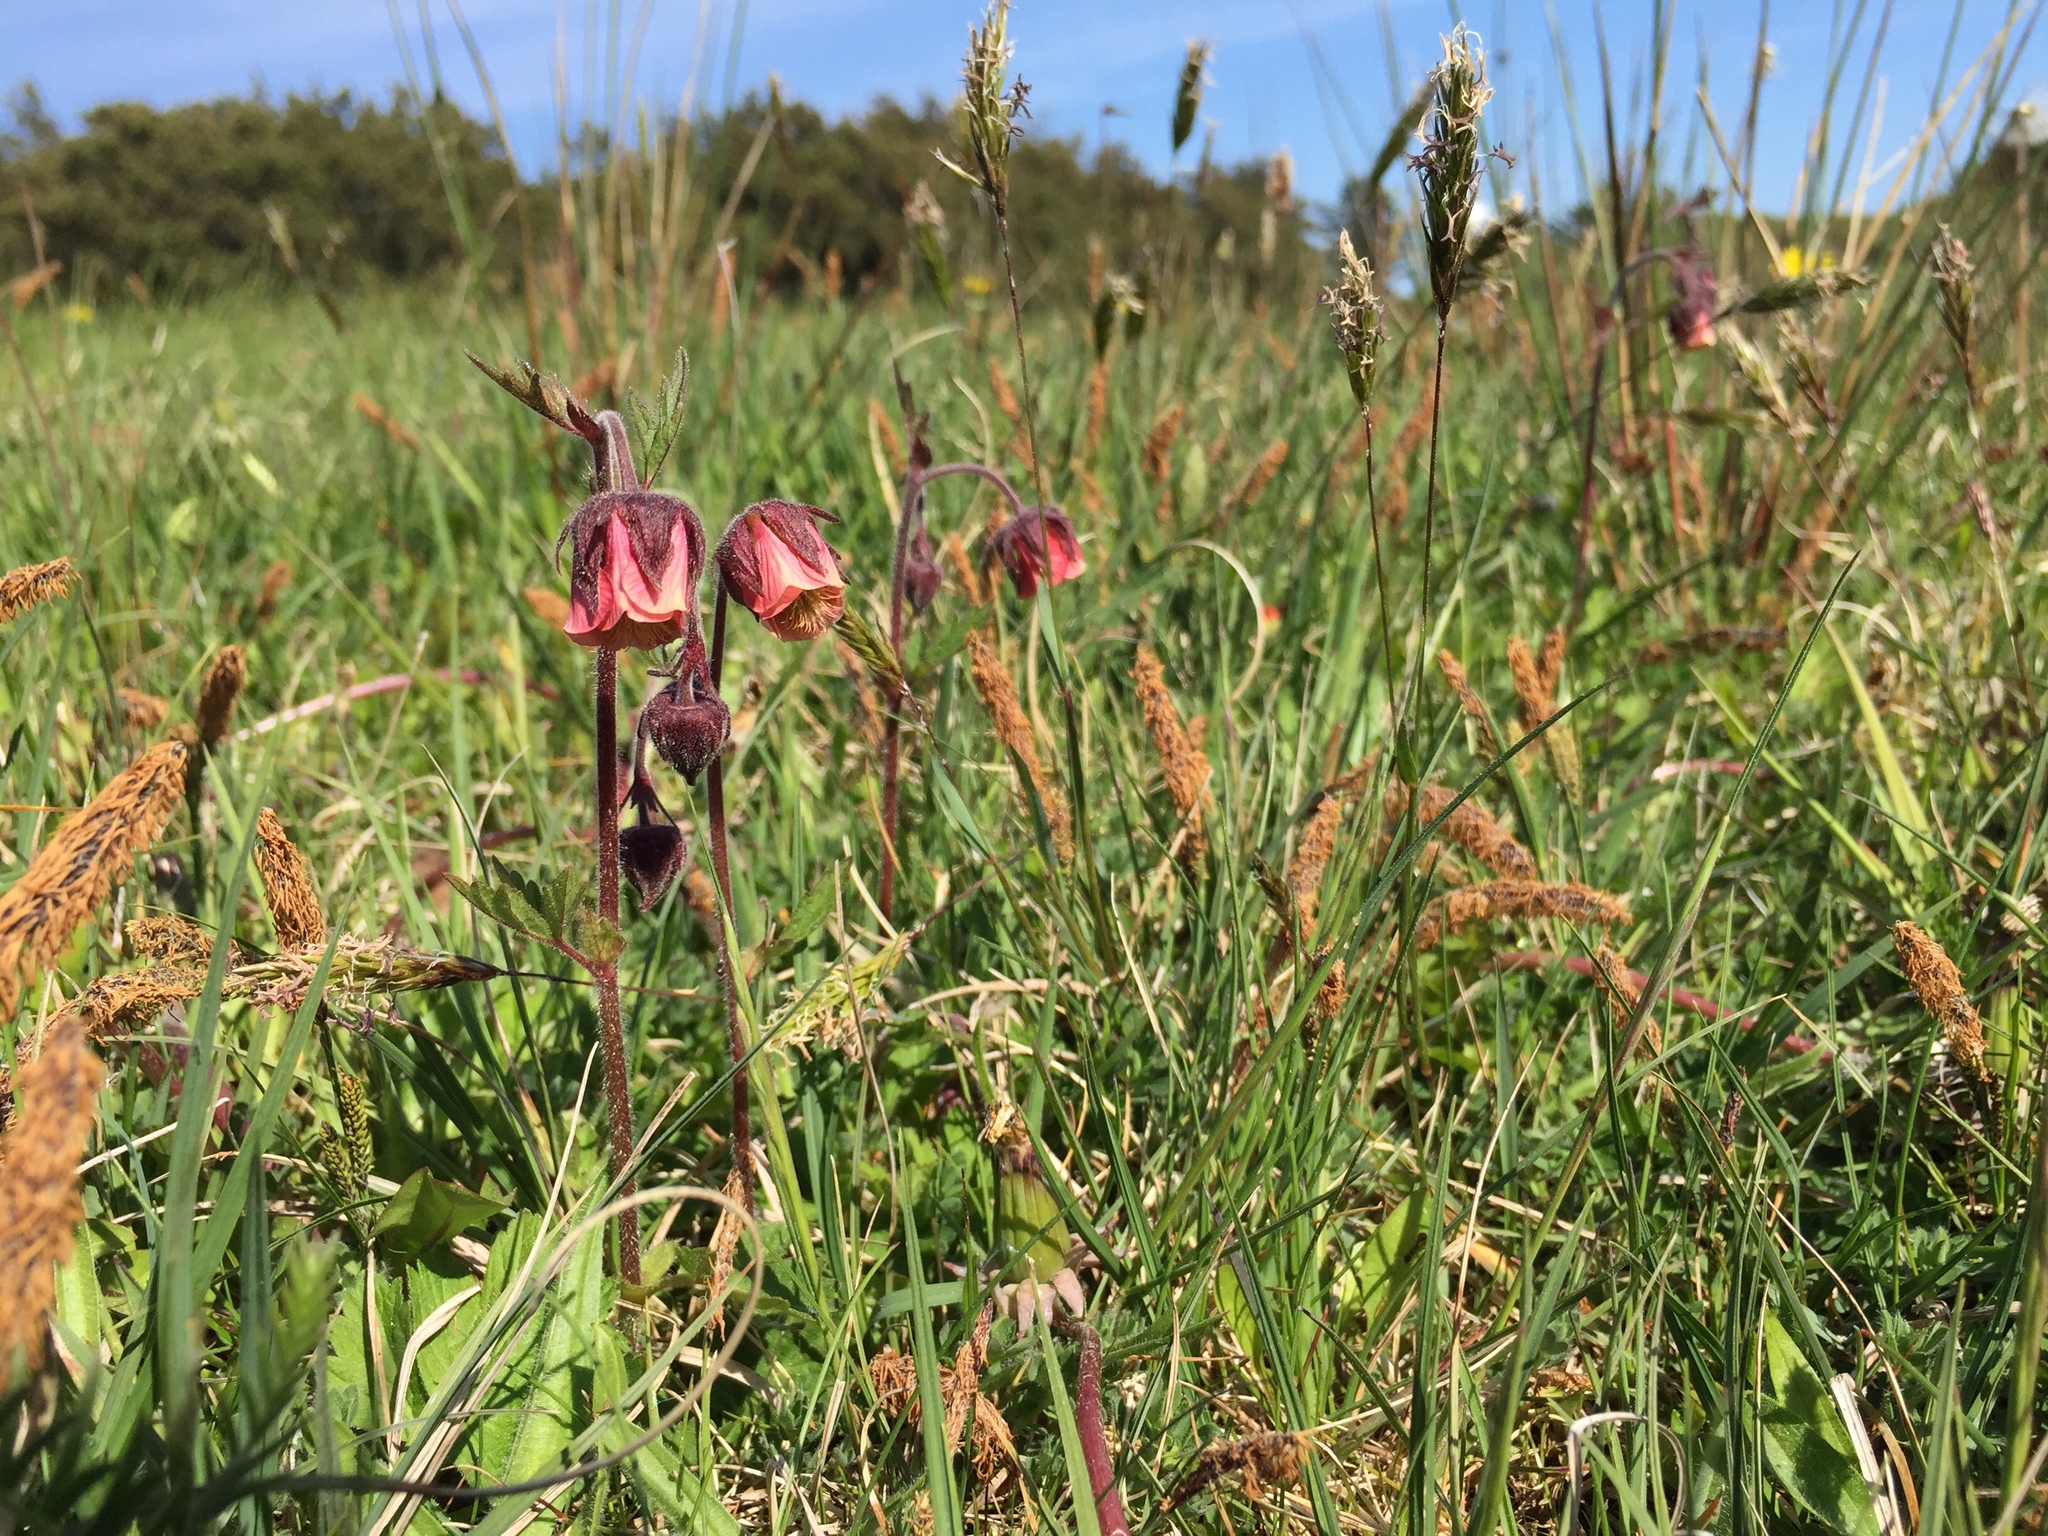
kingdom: Plantae
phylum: Tracheophyta
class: Magnoliopsida
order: Rosales
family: Rosaceae
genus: Geum
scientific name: Geum rivale
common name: Water avens
